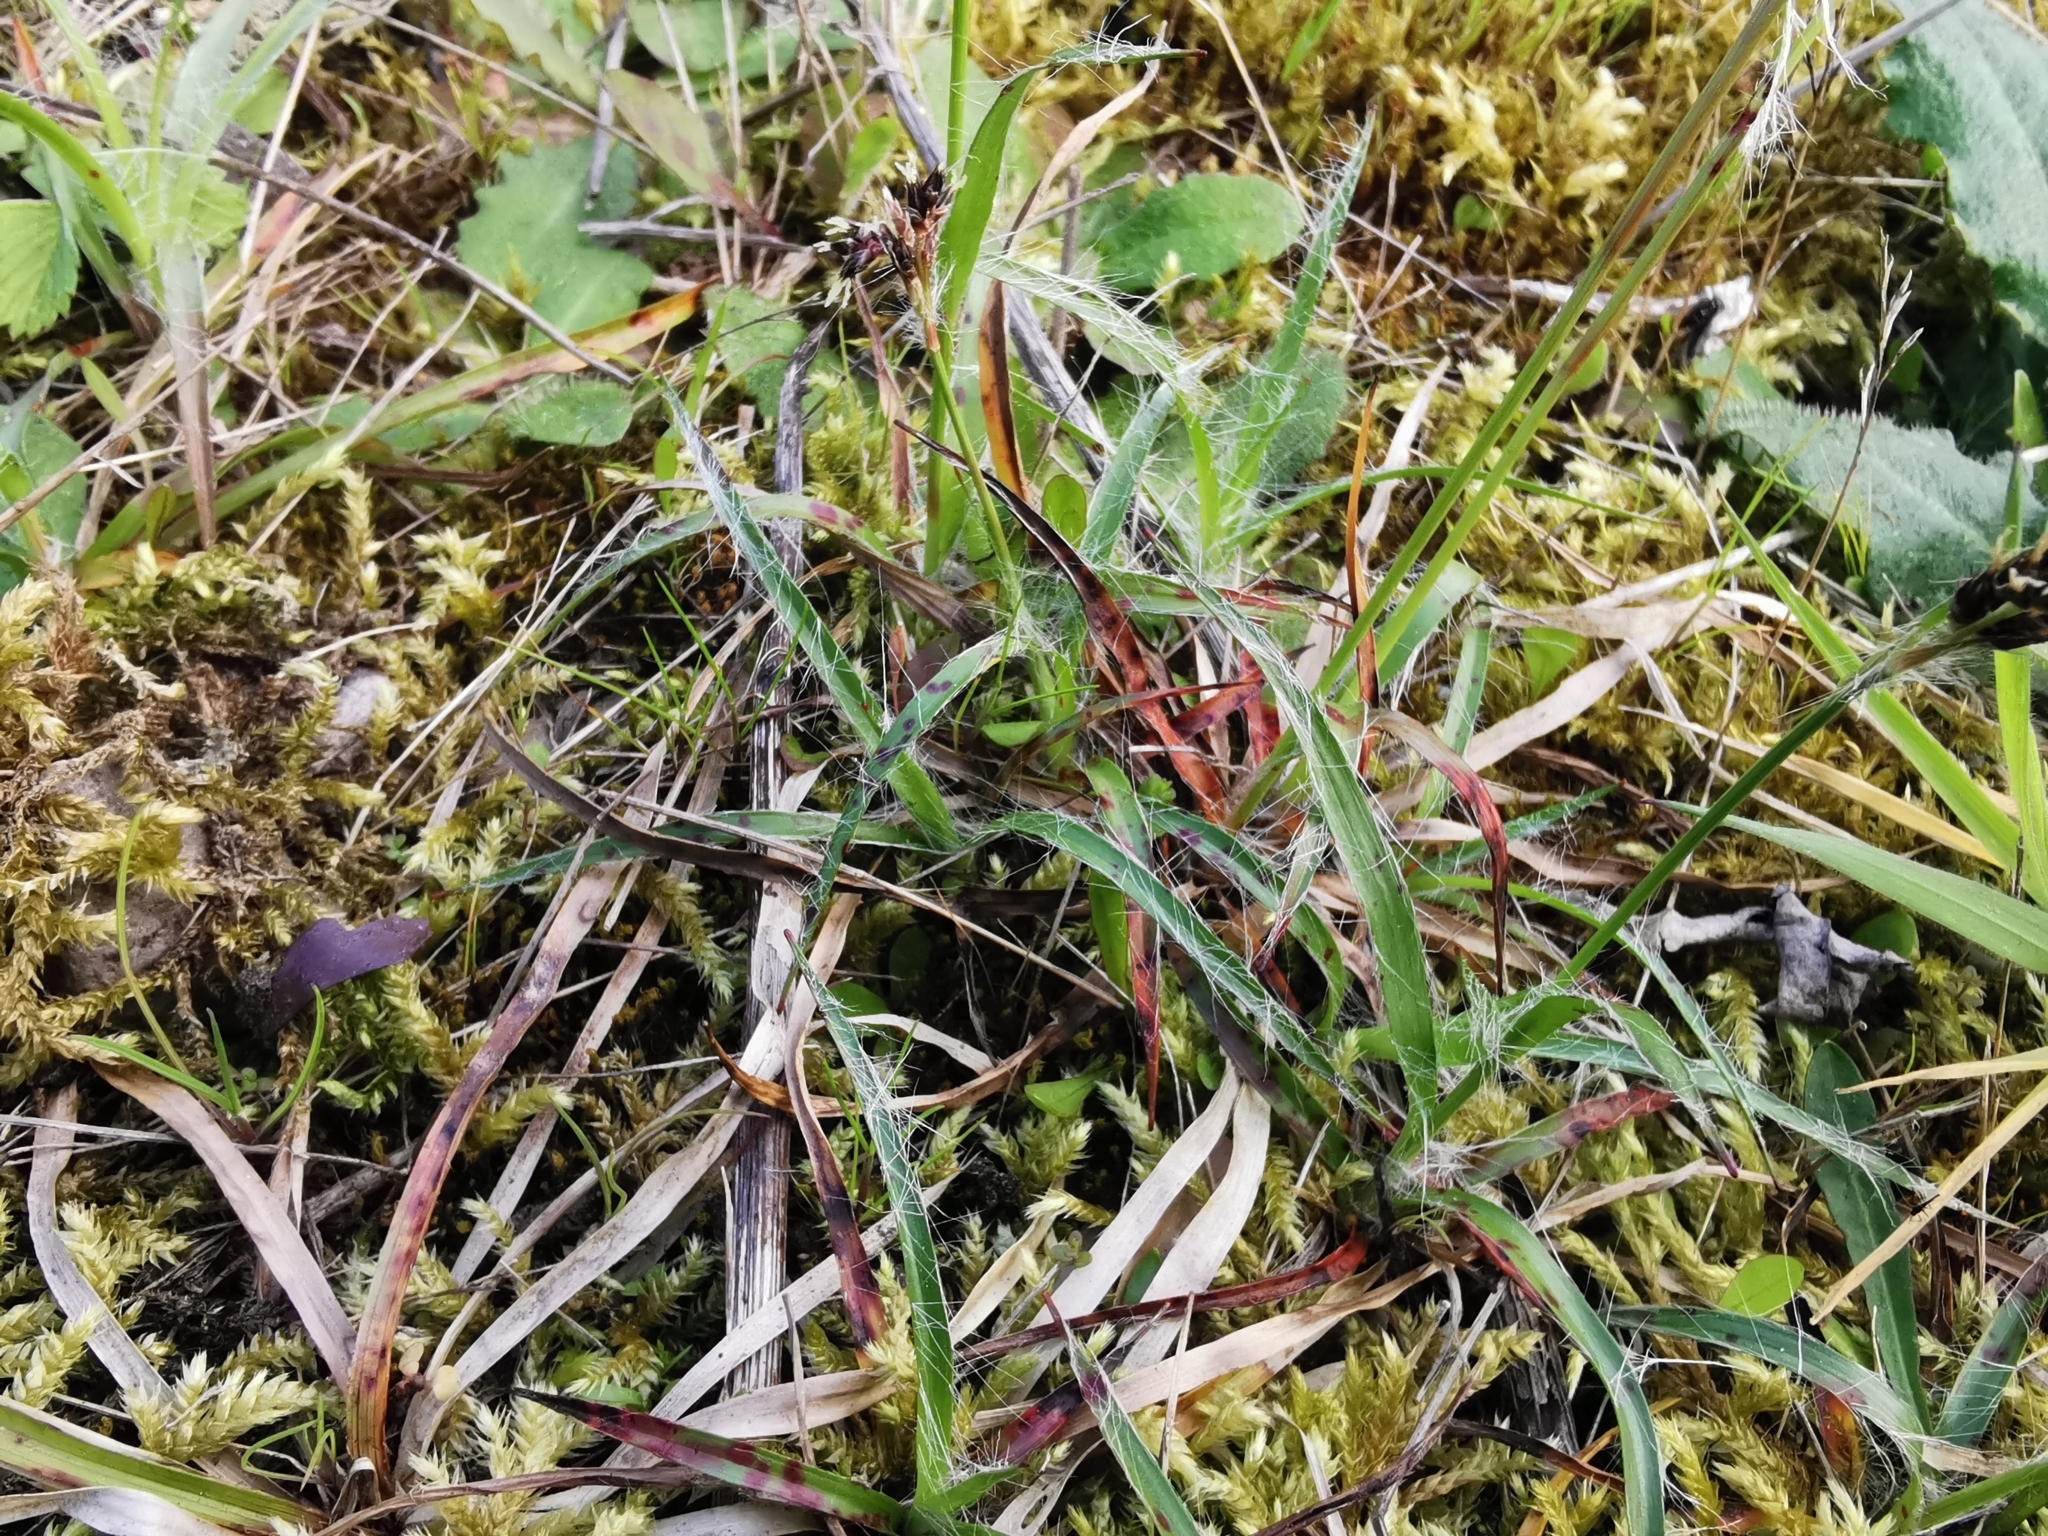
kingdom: Plantae
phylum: Tracheophyta
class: Liliopsida
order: Poales
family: Juncaceae
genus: Luzula
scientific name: Luzula campestris
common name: Field wood-rush
